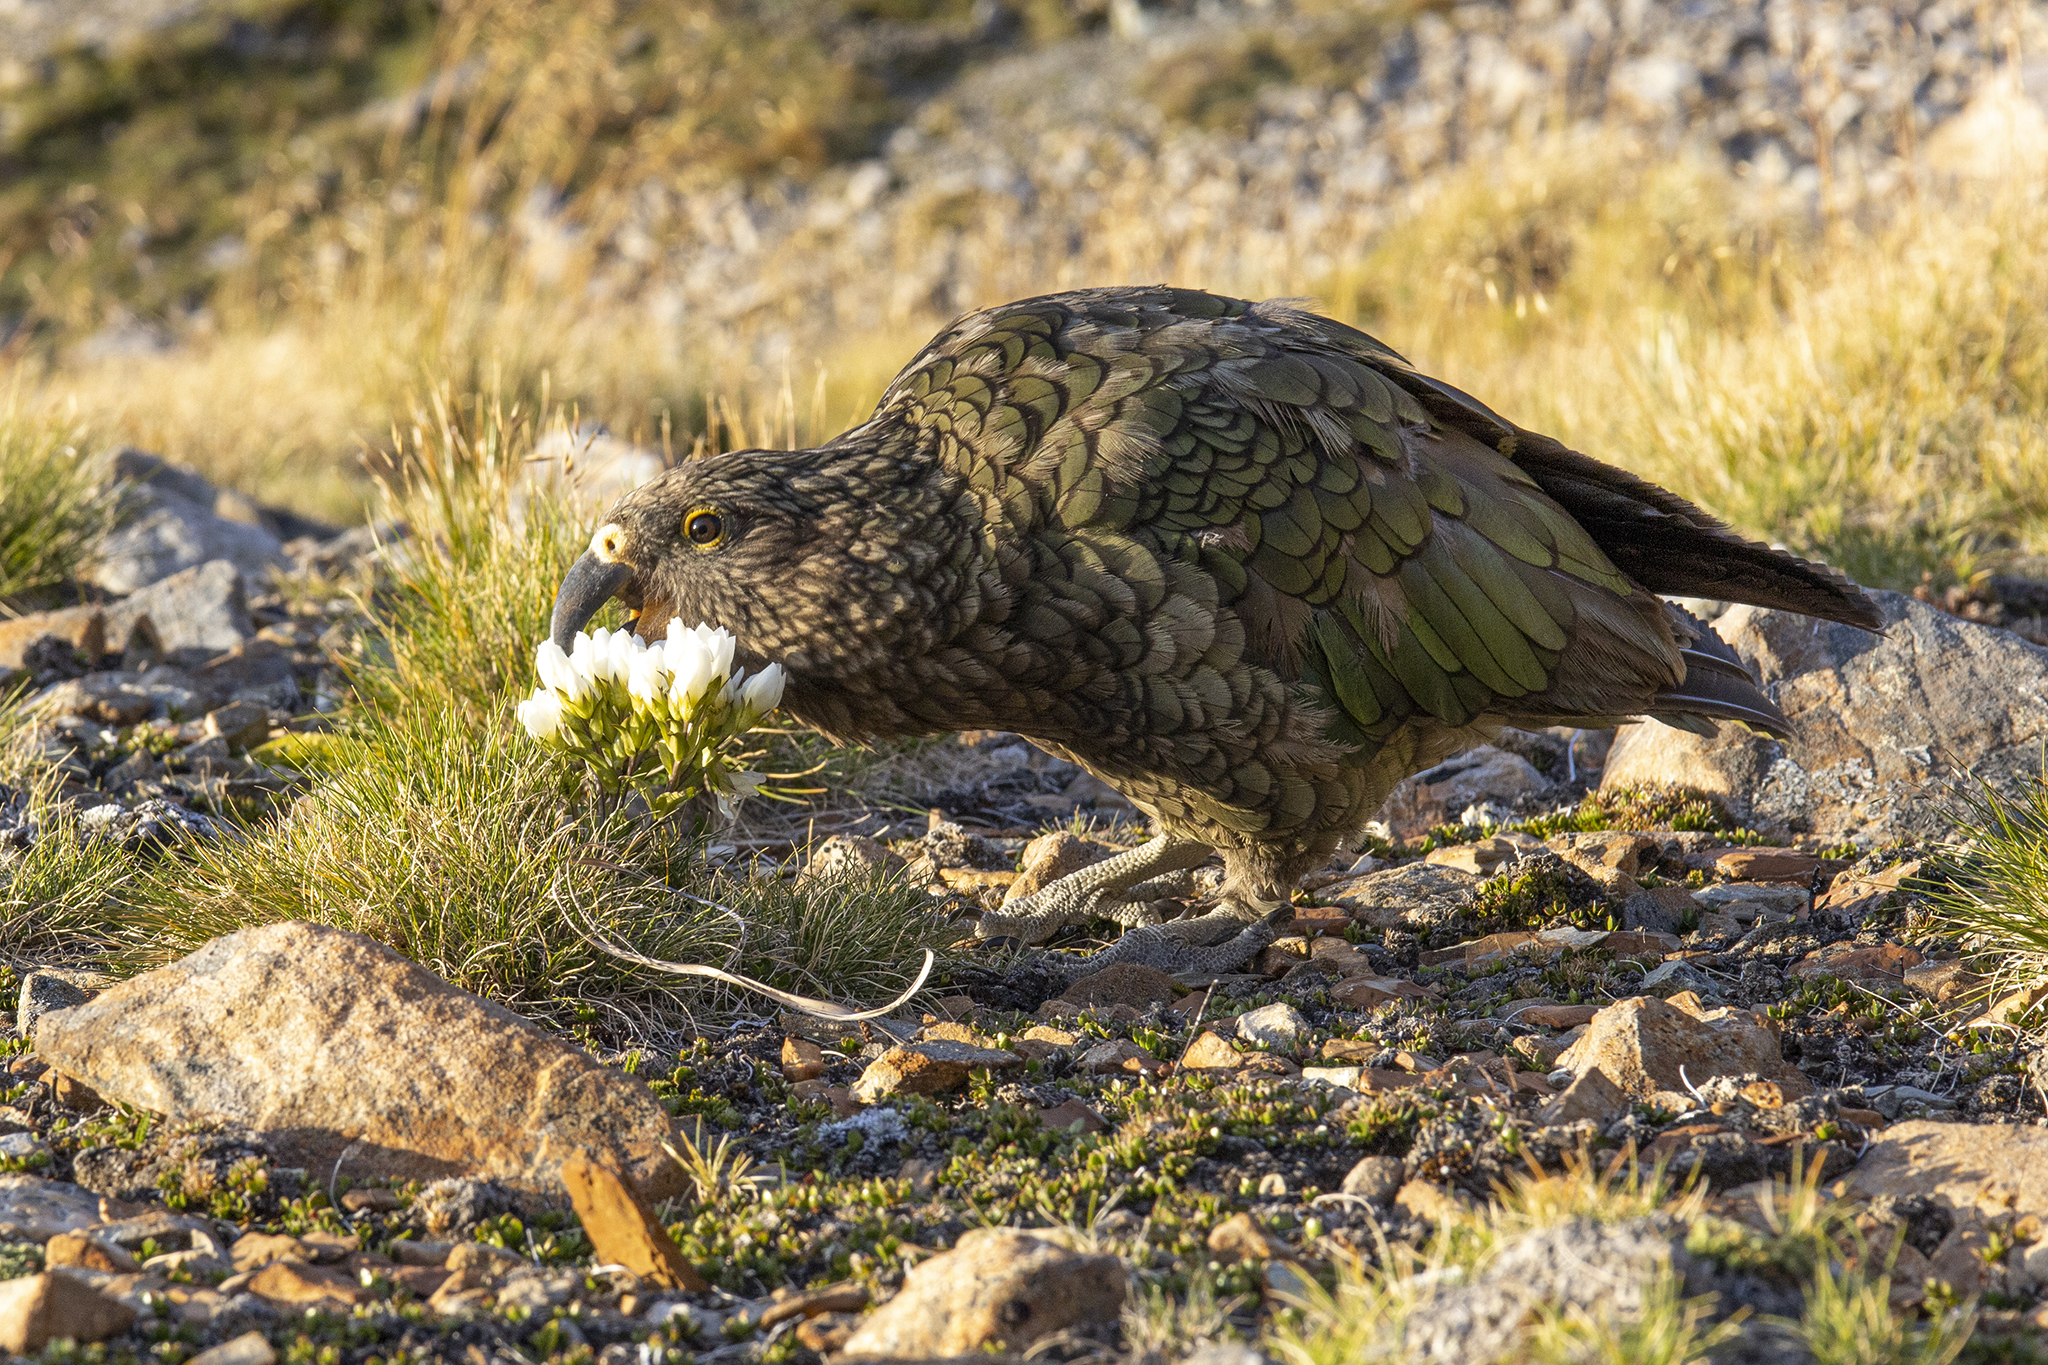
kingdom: Animalia
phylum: Chordata
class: Aves
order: Psittaciformes
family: Psittacidae
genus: Nestor
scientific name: Nestor notabilis
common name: Kea
